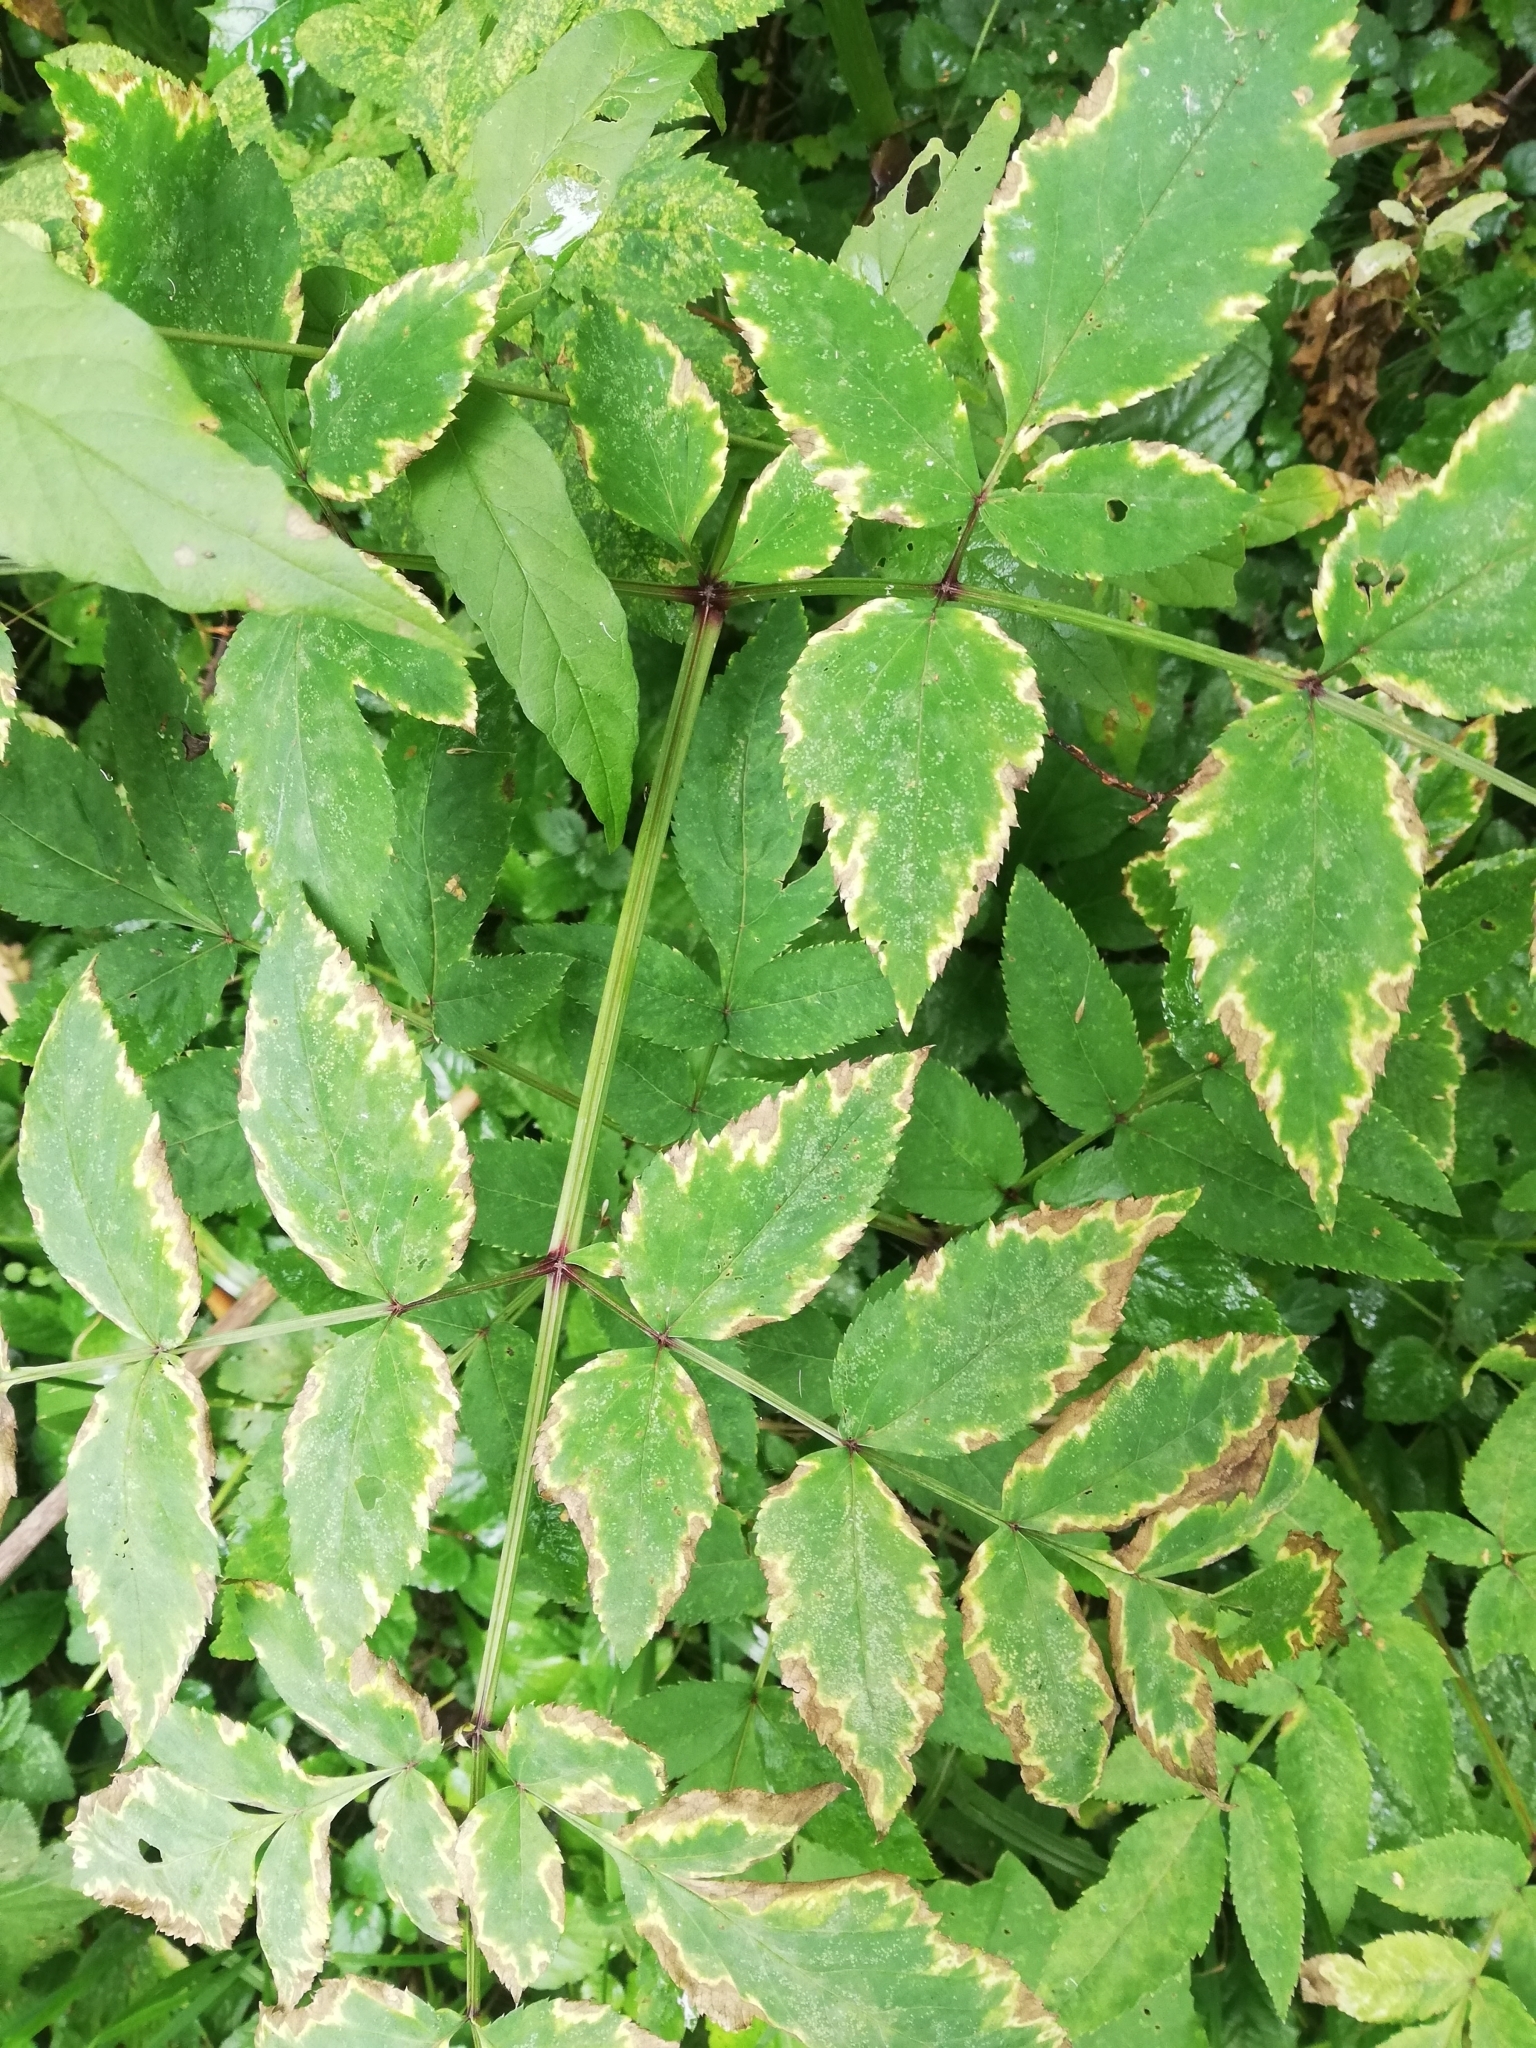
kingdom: Plantae
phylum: Tracheophyta
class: Magnoliopsida
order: Apiales
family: Apiaceae
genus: Angelica
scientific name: Angelica sylvestris
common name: Wild angelica
